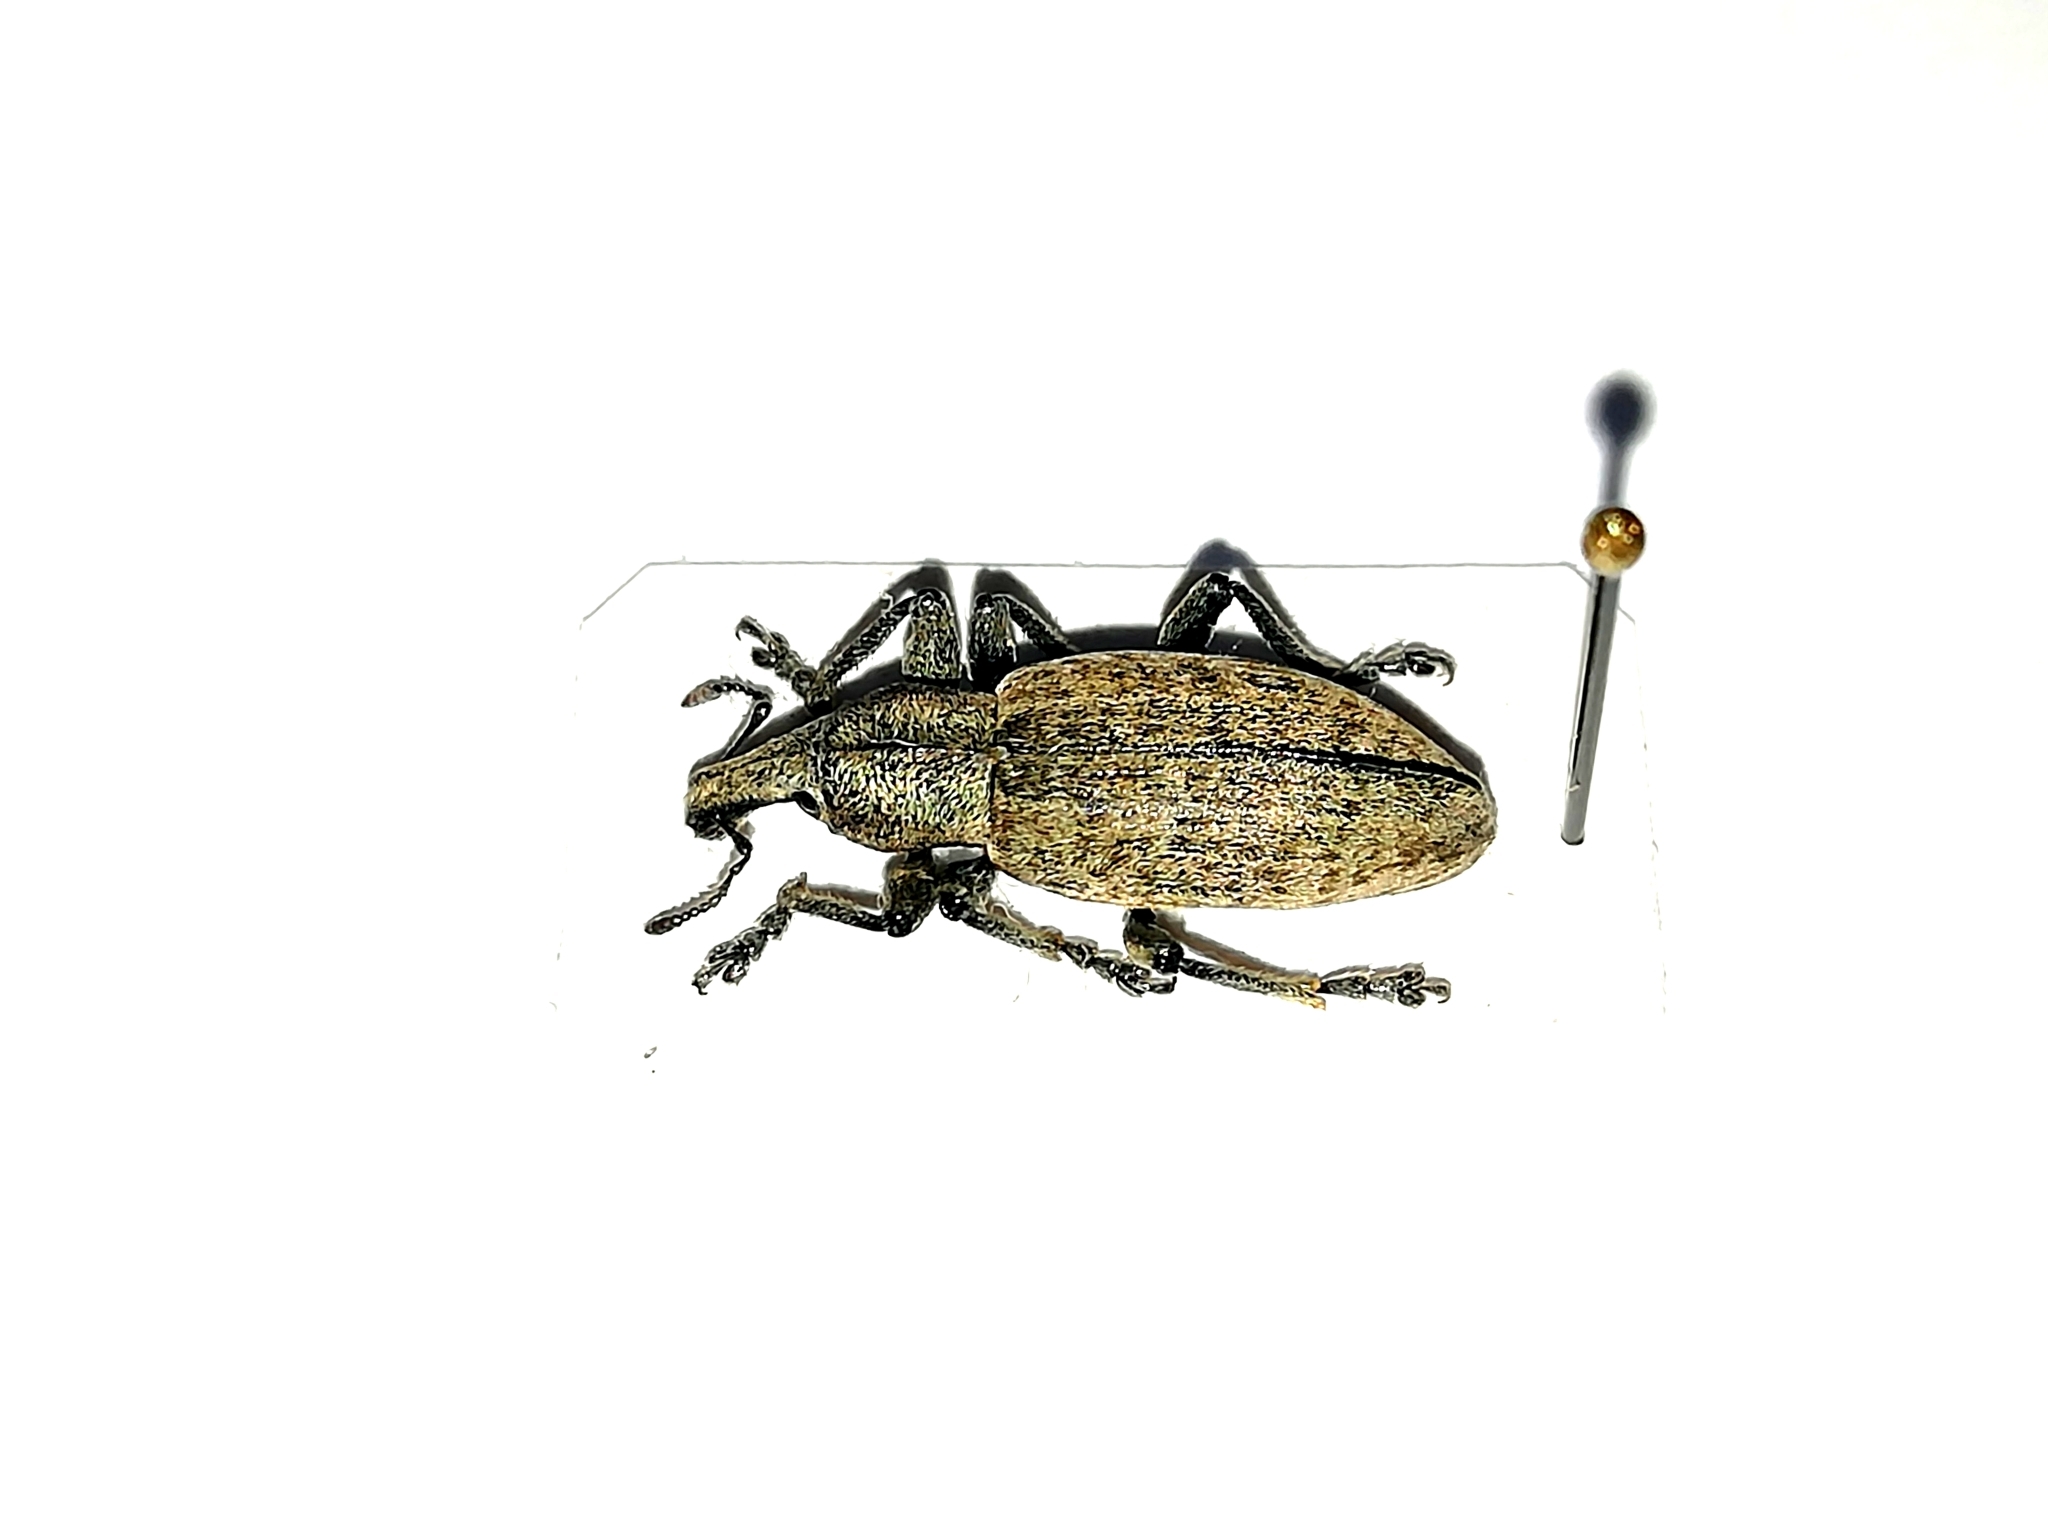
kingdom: Animalia
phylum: Arthropoda
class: Insecta
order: Coleoptera
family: Curculionidae
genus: Trichalophus
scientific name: Trichalophus boeberi
